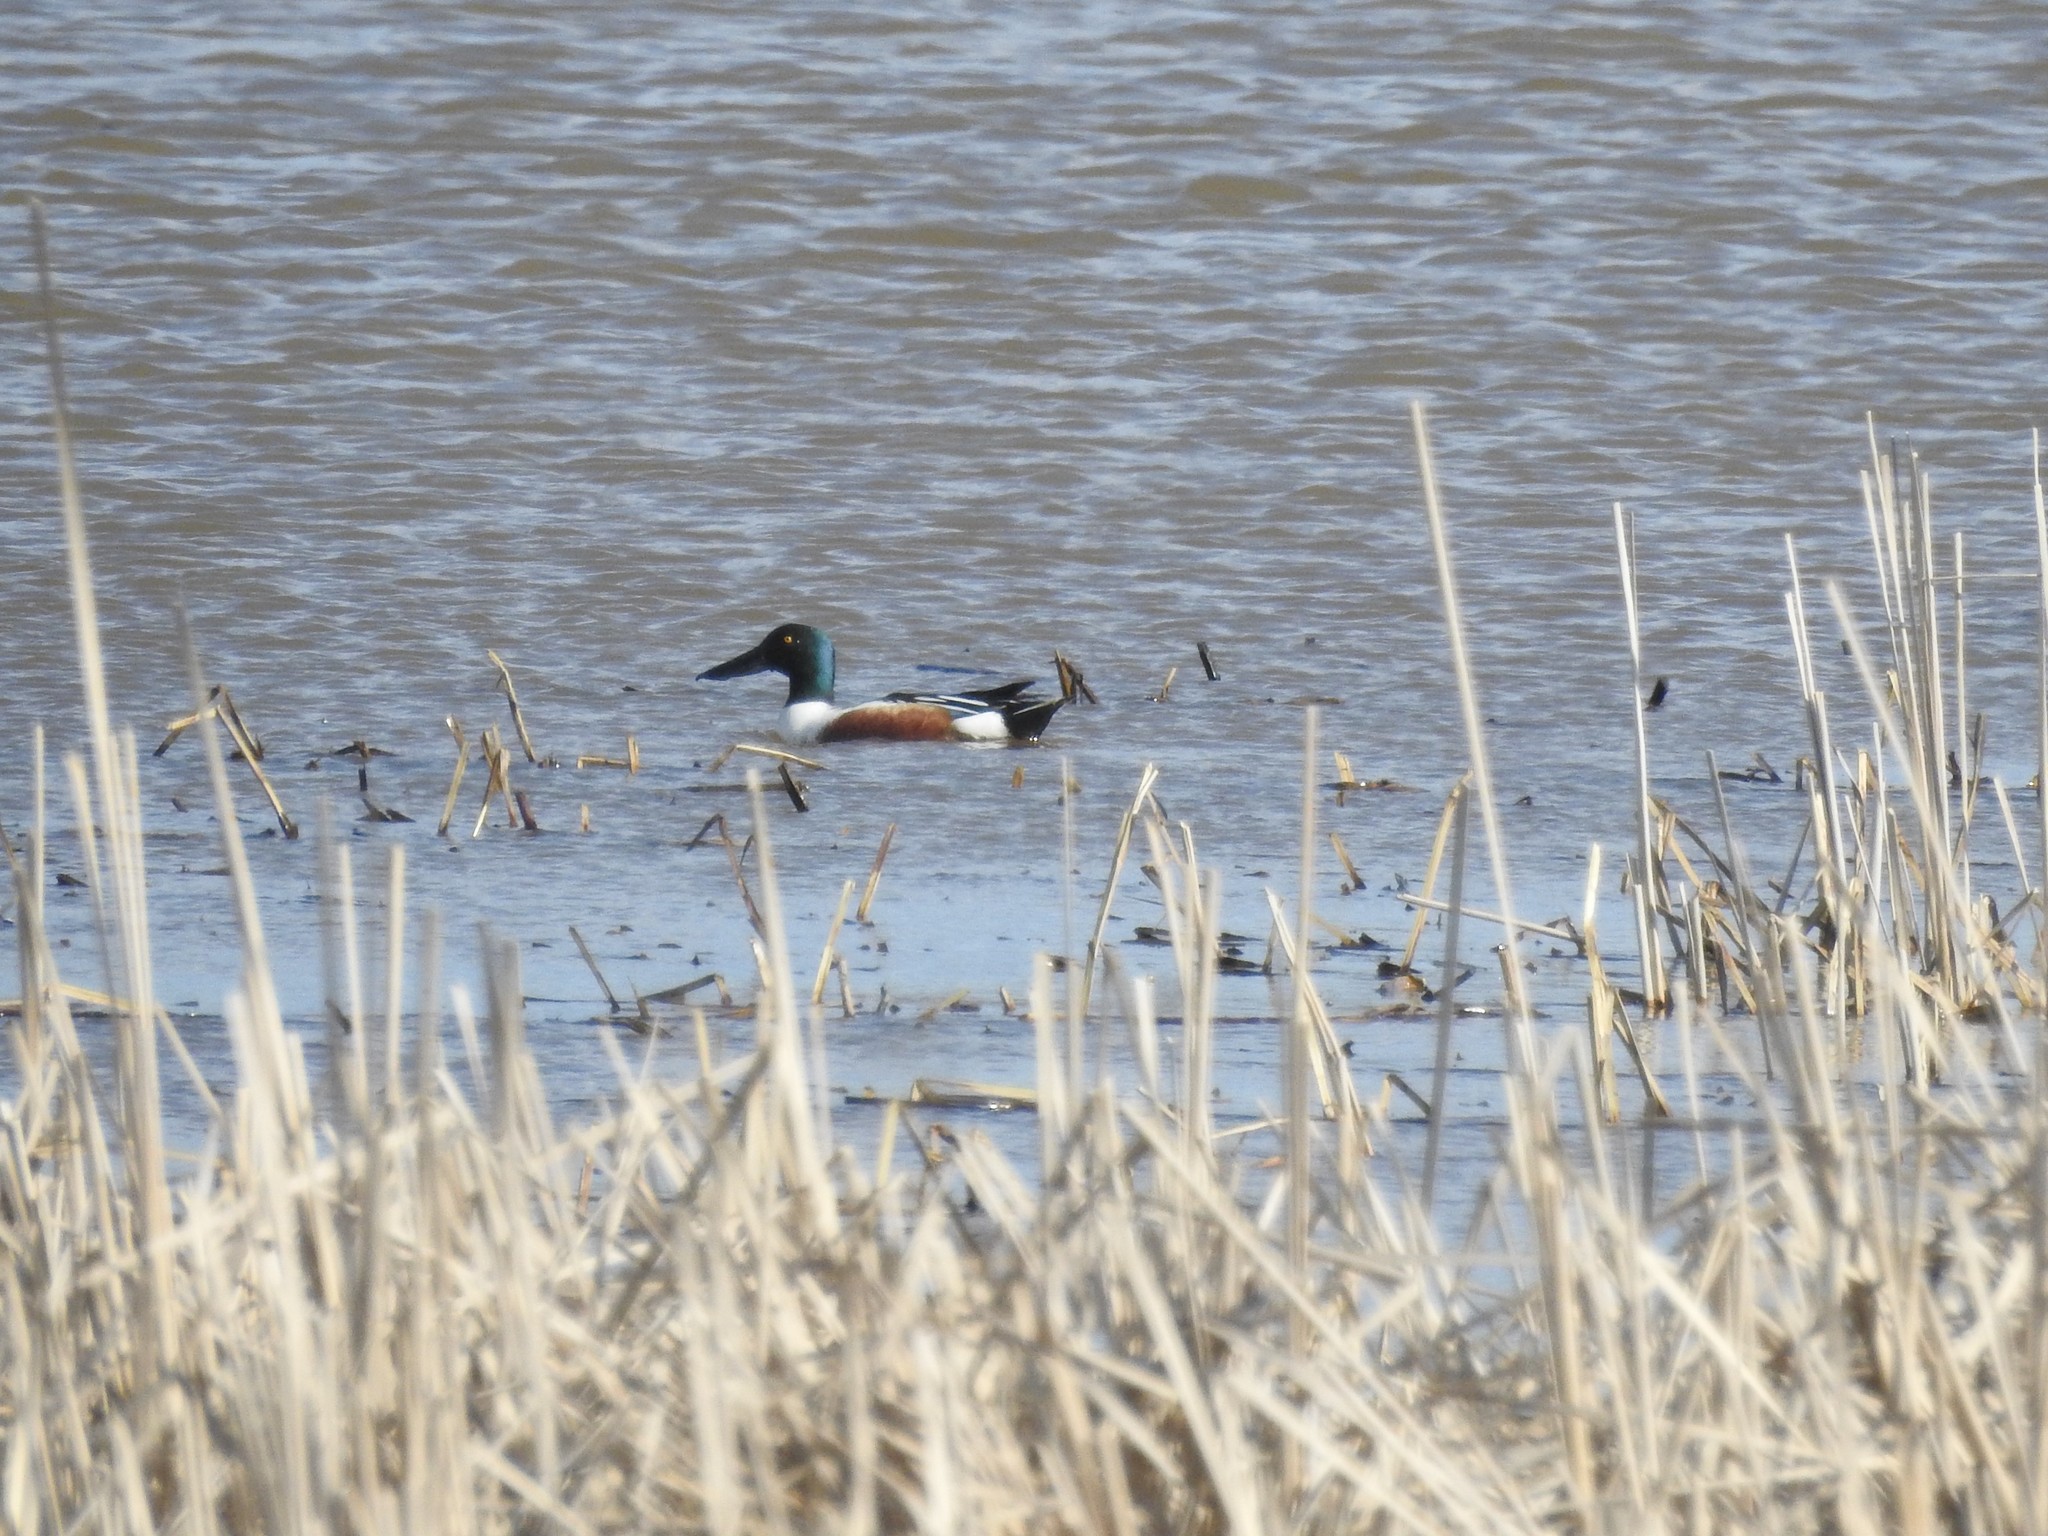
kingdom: Animalia
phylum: Chordata
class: Aves
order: Anseriformes
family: Anatidae
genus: Spatula
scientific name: Spatula clypeata
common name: Northern shoveler
